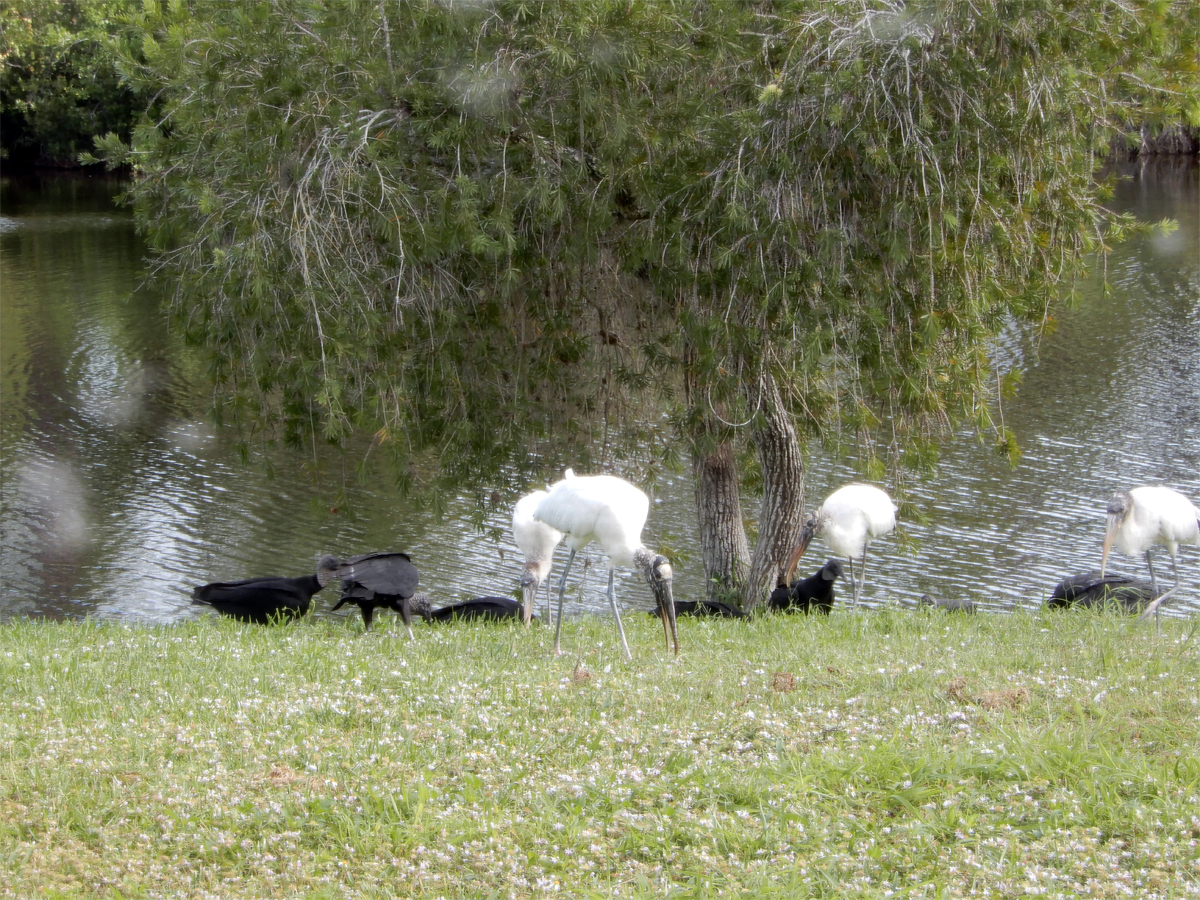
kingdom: Animalia
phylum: Chordata
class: Aves
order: Ciconiiformes
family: Ciconiidae
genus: Mycteria
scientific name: Mycteria americana
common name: Wood stork
